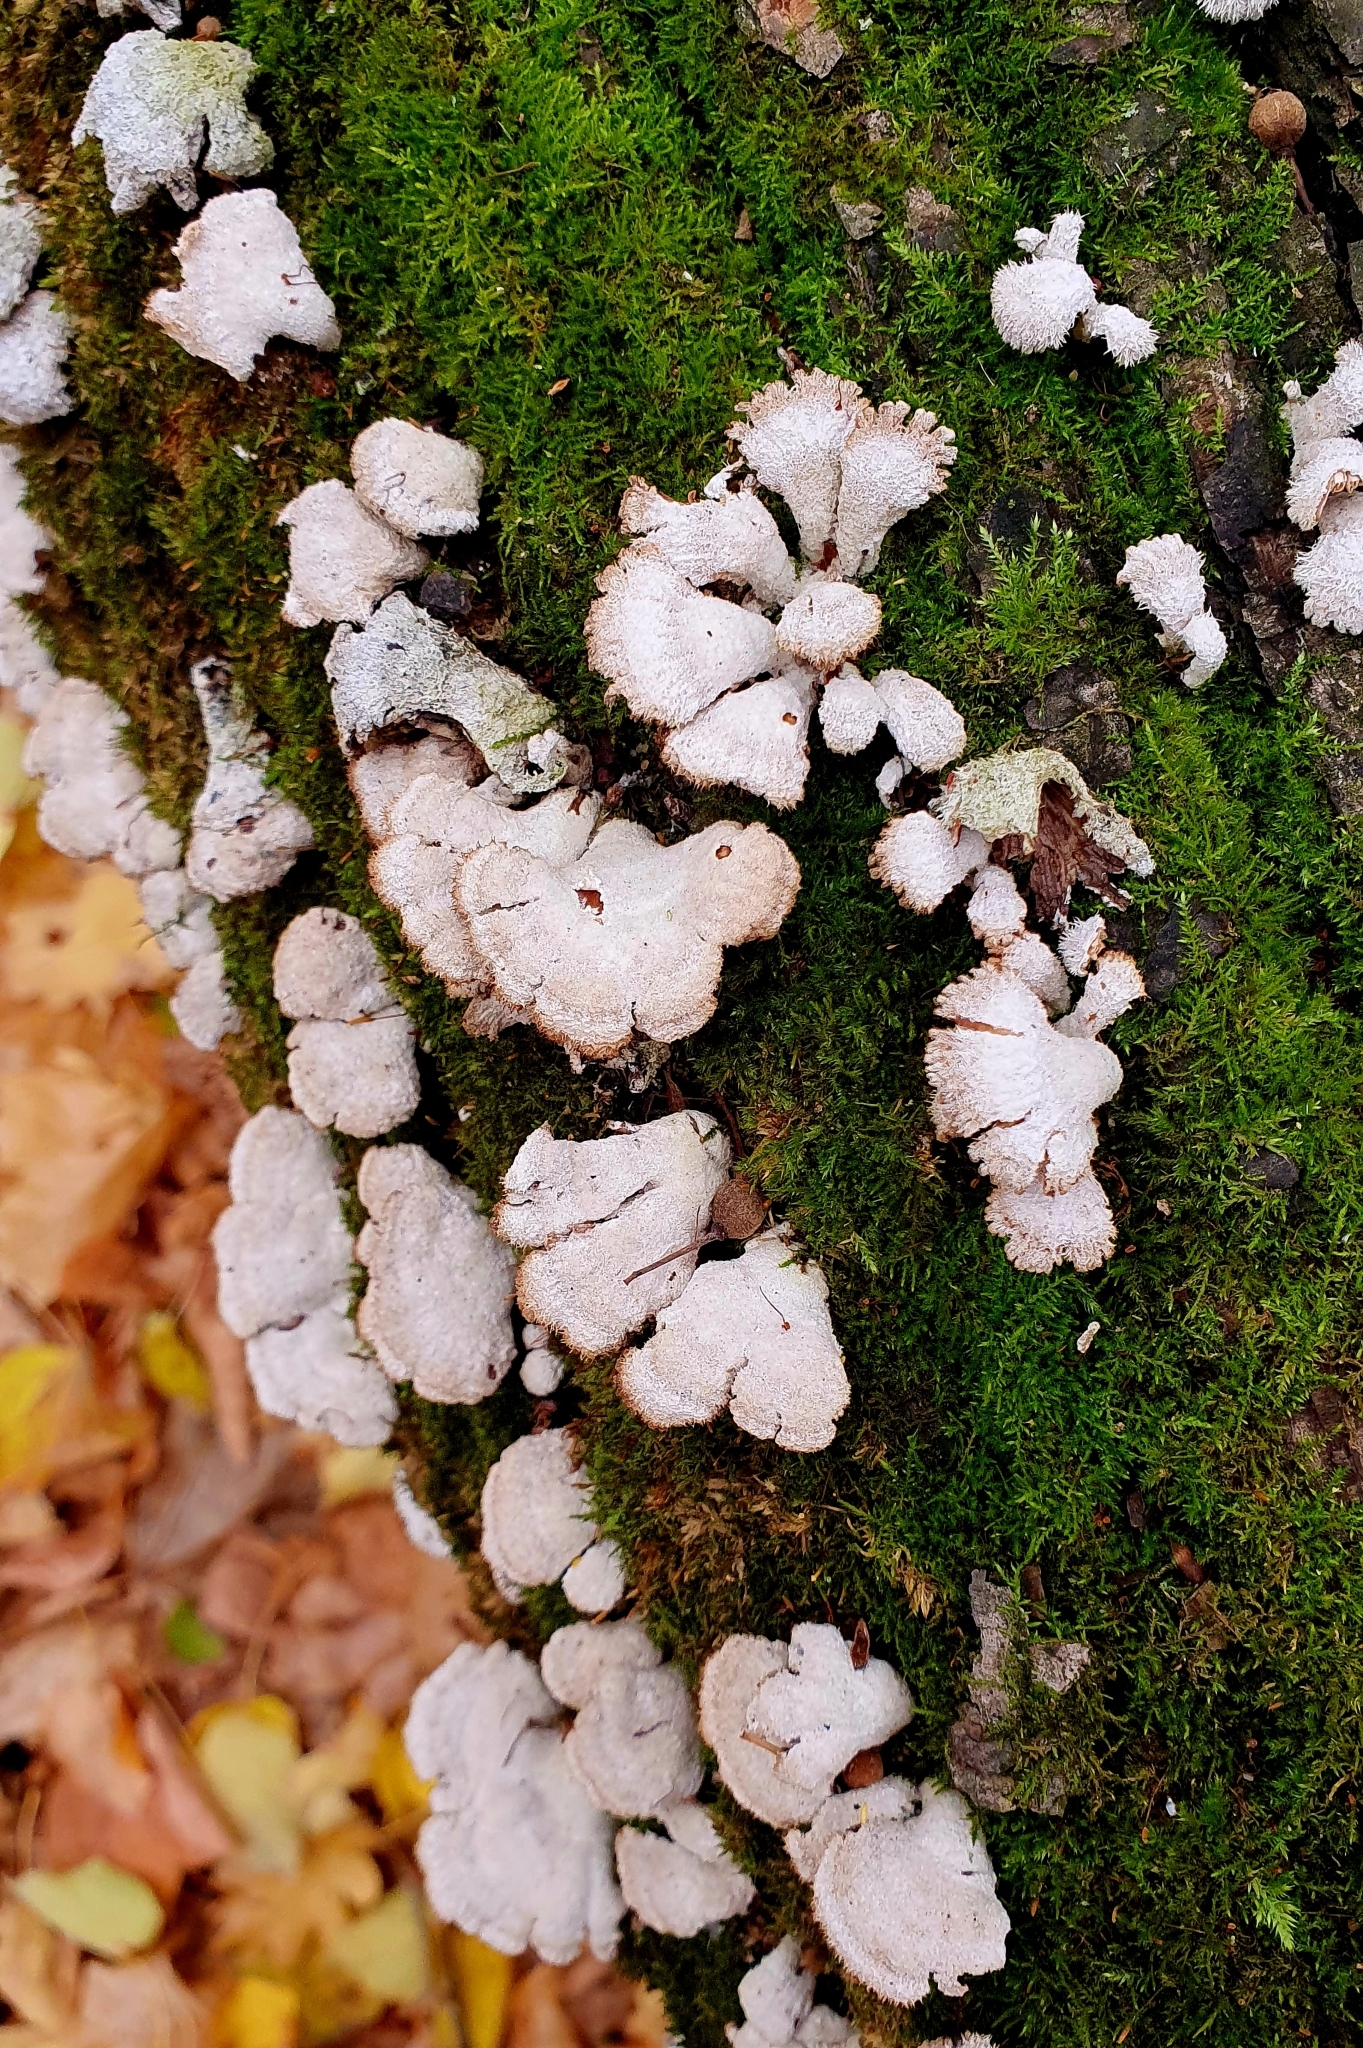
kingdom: Fungi
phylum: Basidiomycota
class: Agaricomycetes
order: Agaricales
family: Schizophyllaceae
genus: Schizophyllum
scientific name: Schizophyllum commune
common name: Common porecrust
